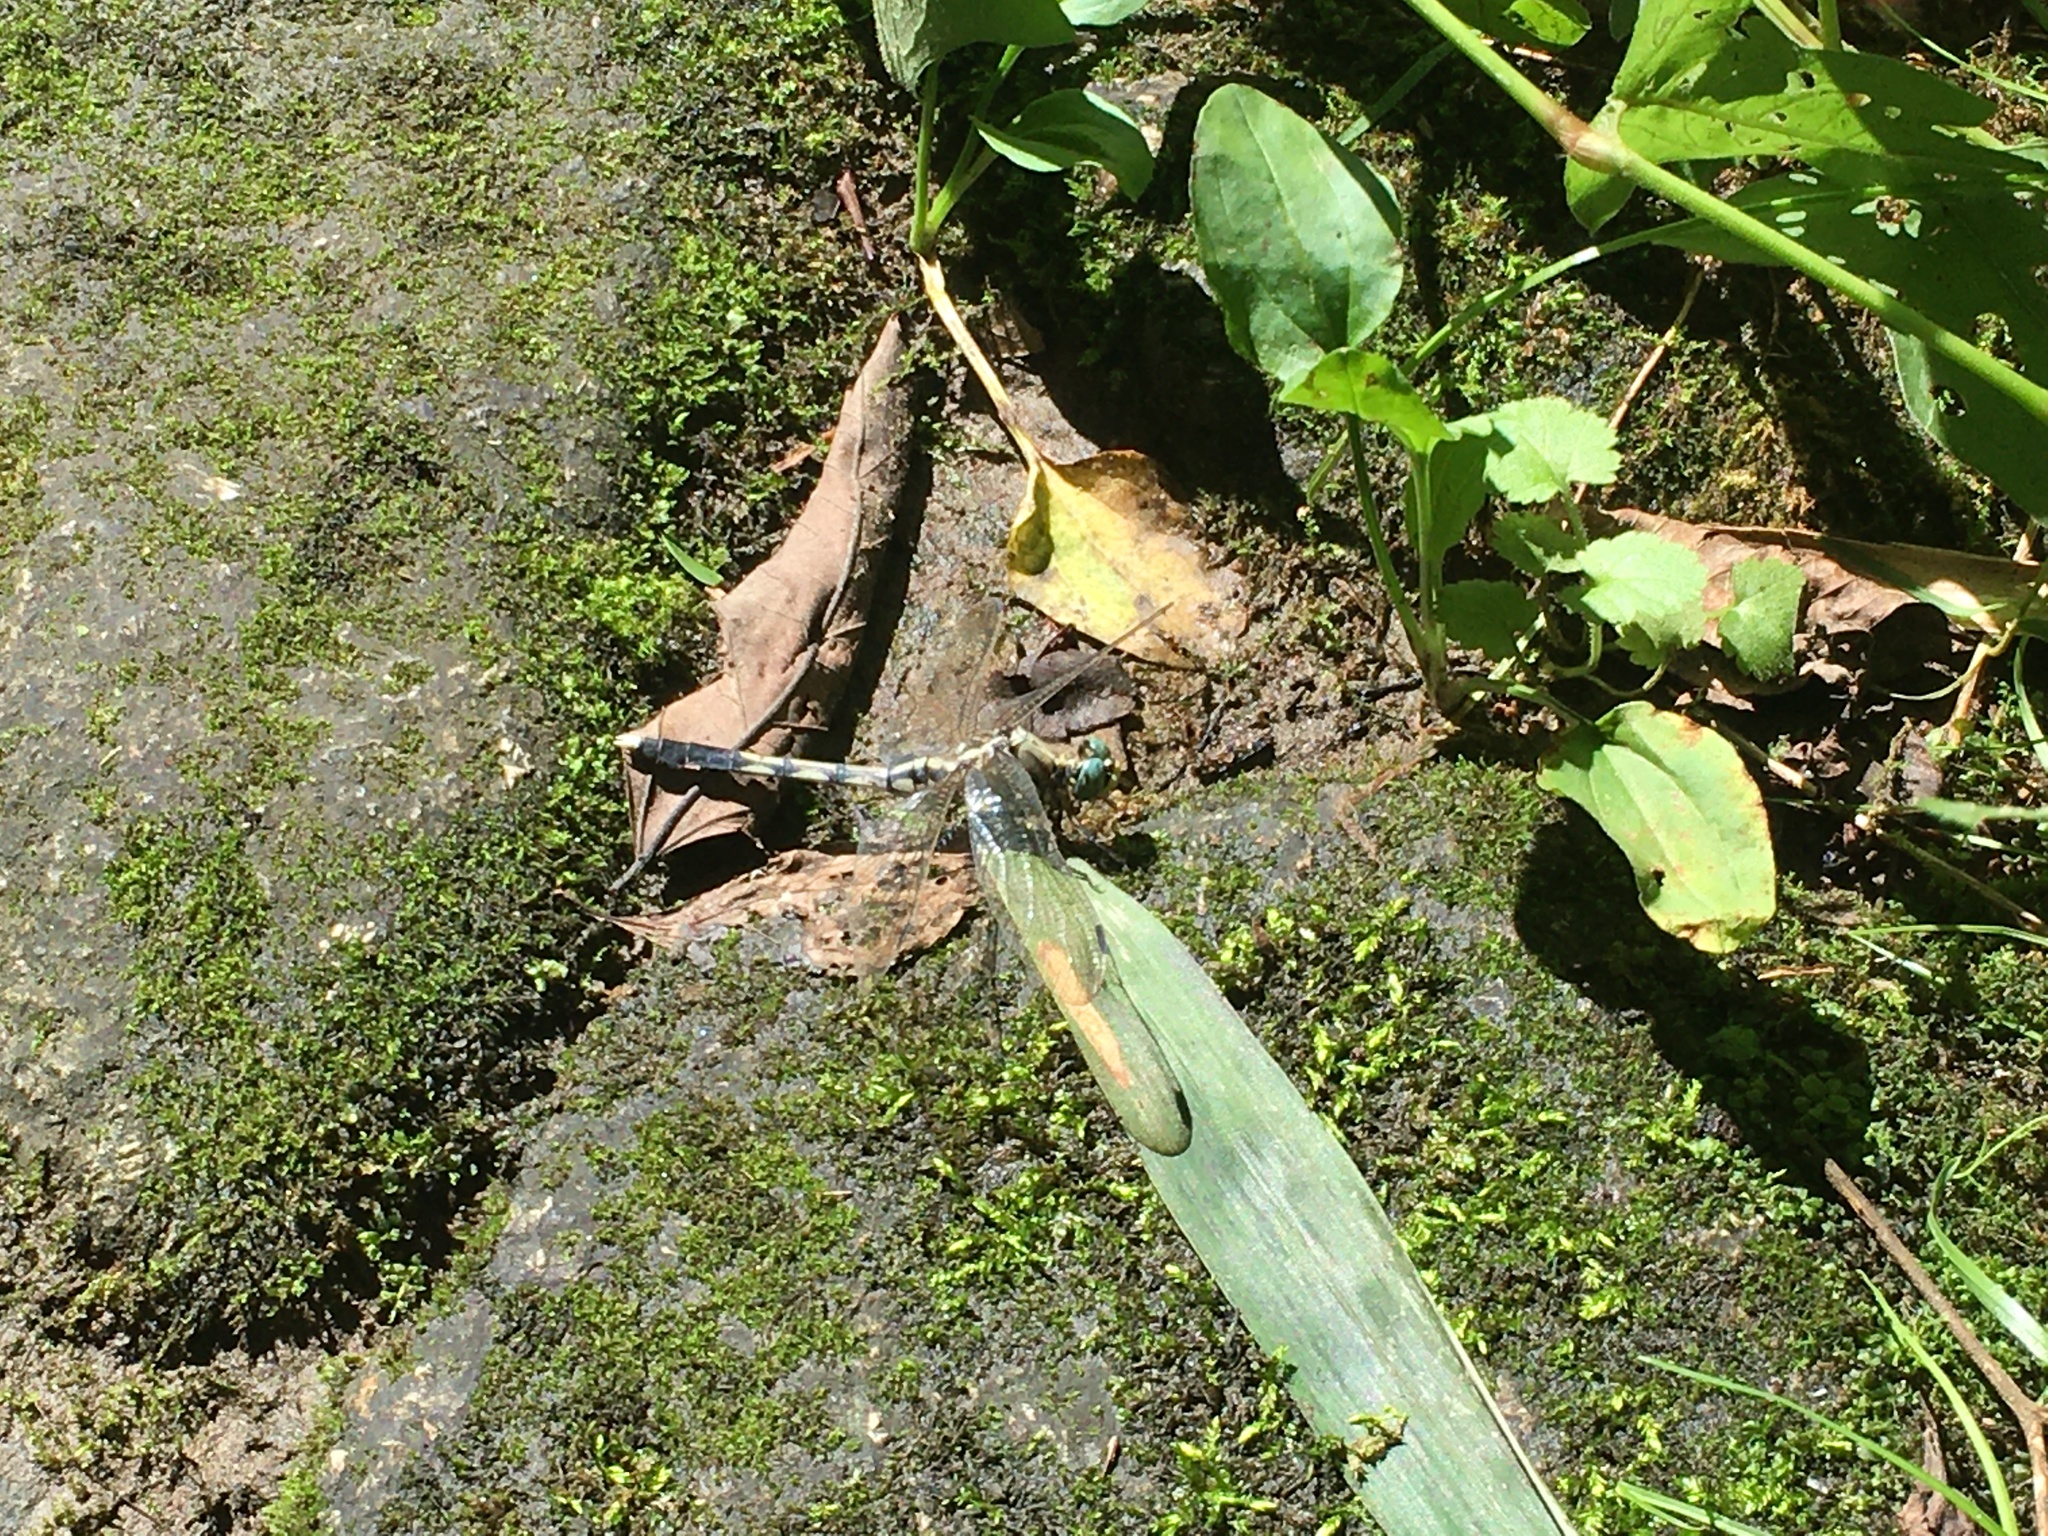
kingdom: Animalia
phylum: Arthropoda
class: Insecta
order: Odonata
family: Libellulidae
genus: Orthetrum
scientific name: Orthetrum albistylum
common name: White-tailed skimmer
